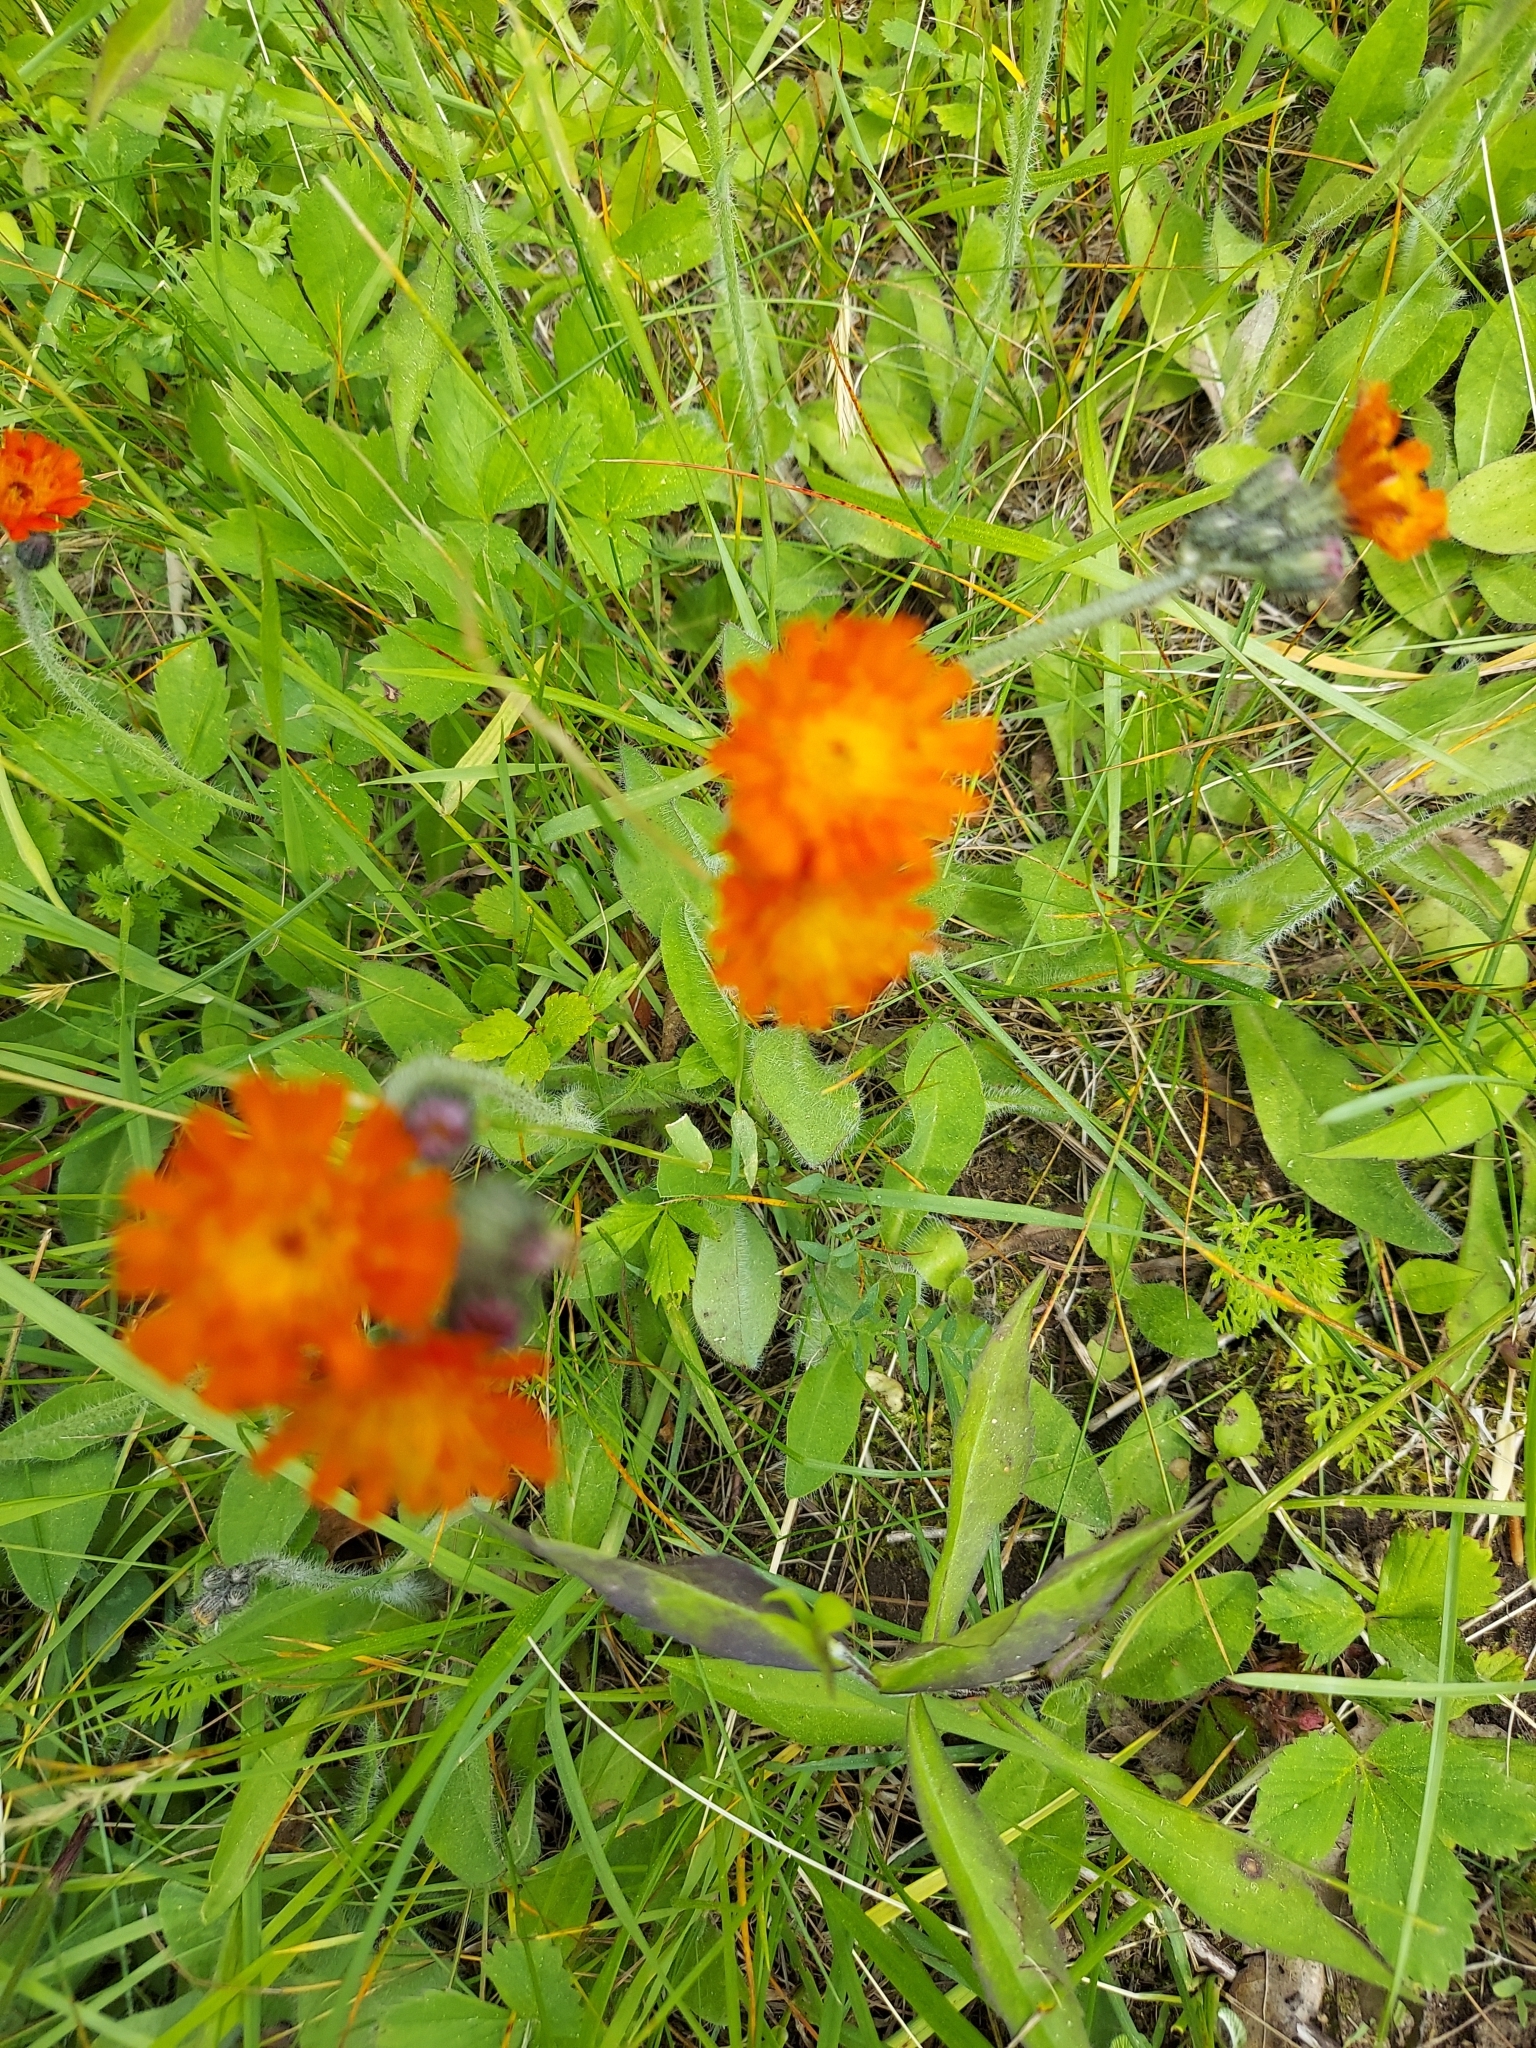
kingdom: Plantae
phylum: Tracheophyta
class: Magnoliopsida
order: Asterales
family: Asteraceae
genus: Pilosella
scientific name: Pilosella aurantiaca
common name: Fox-and-cubs
